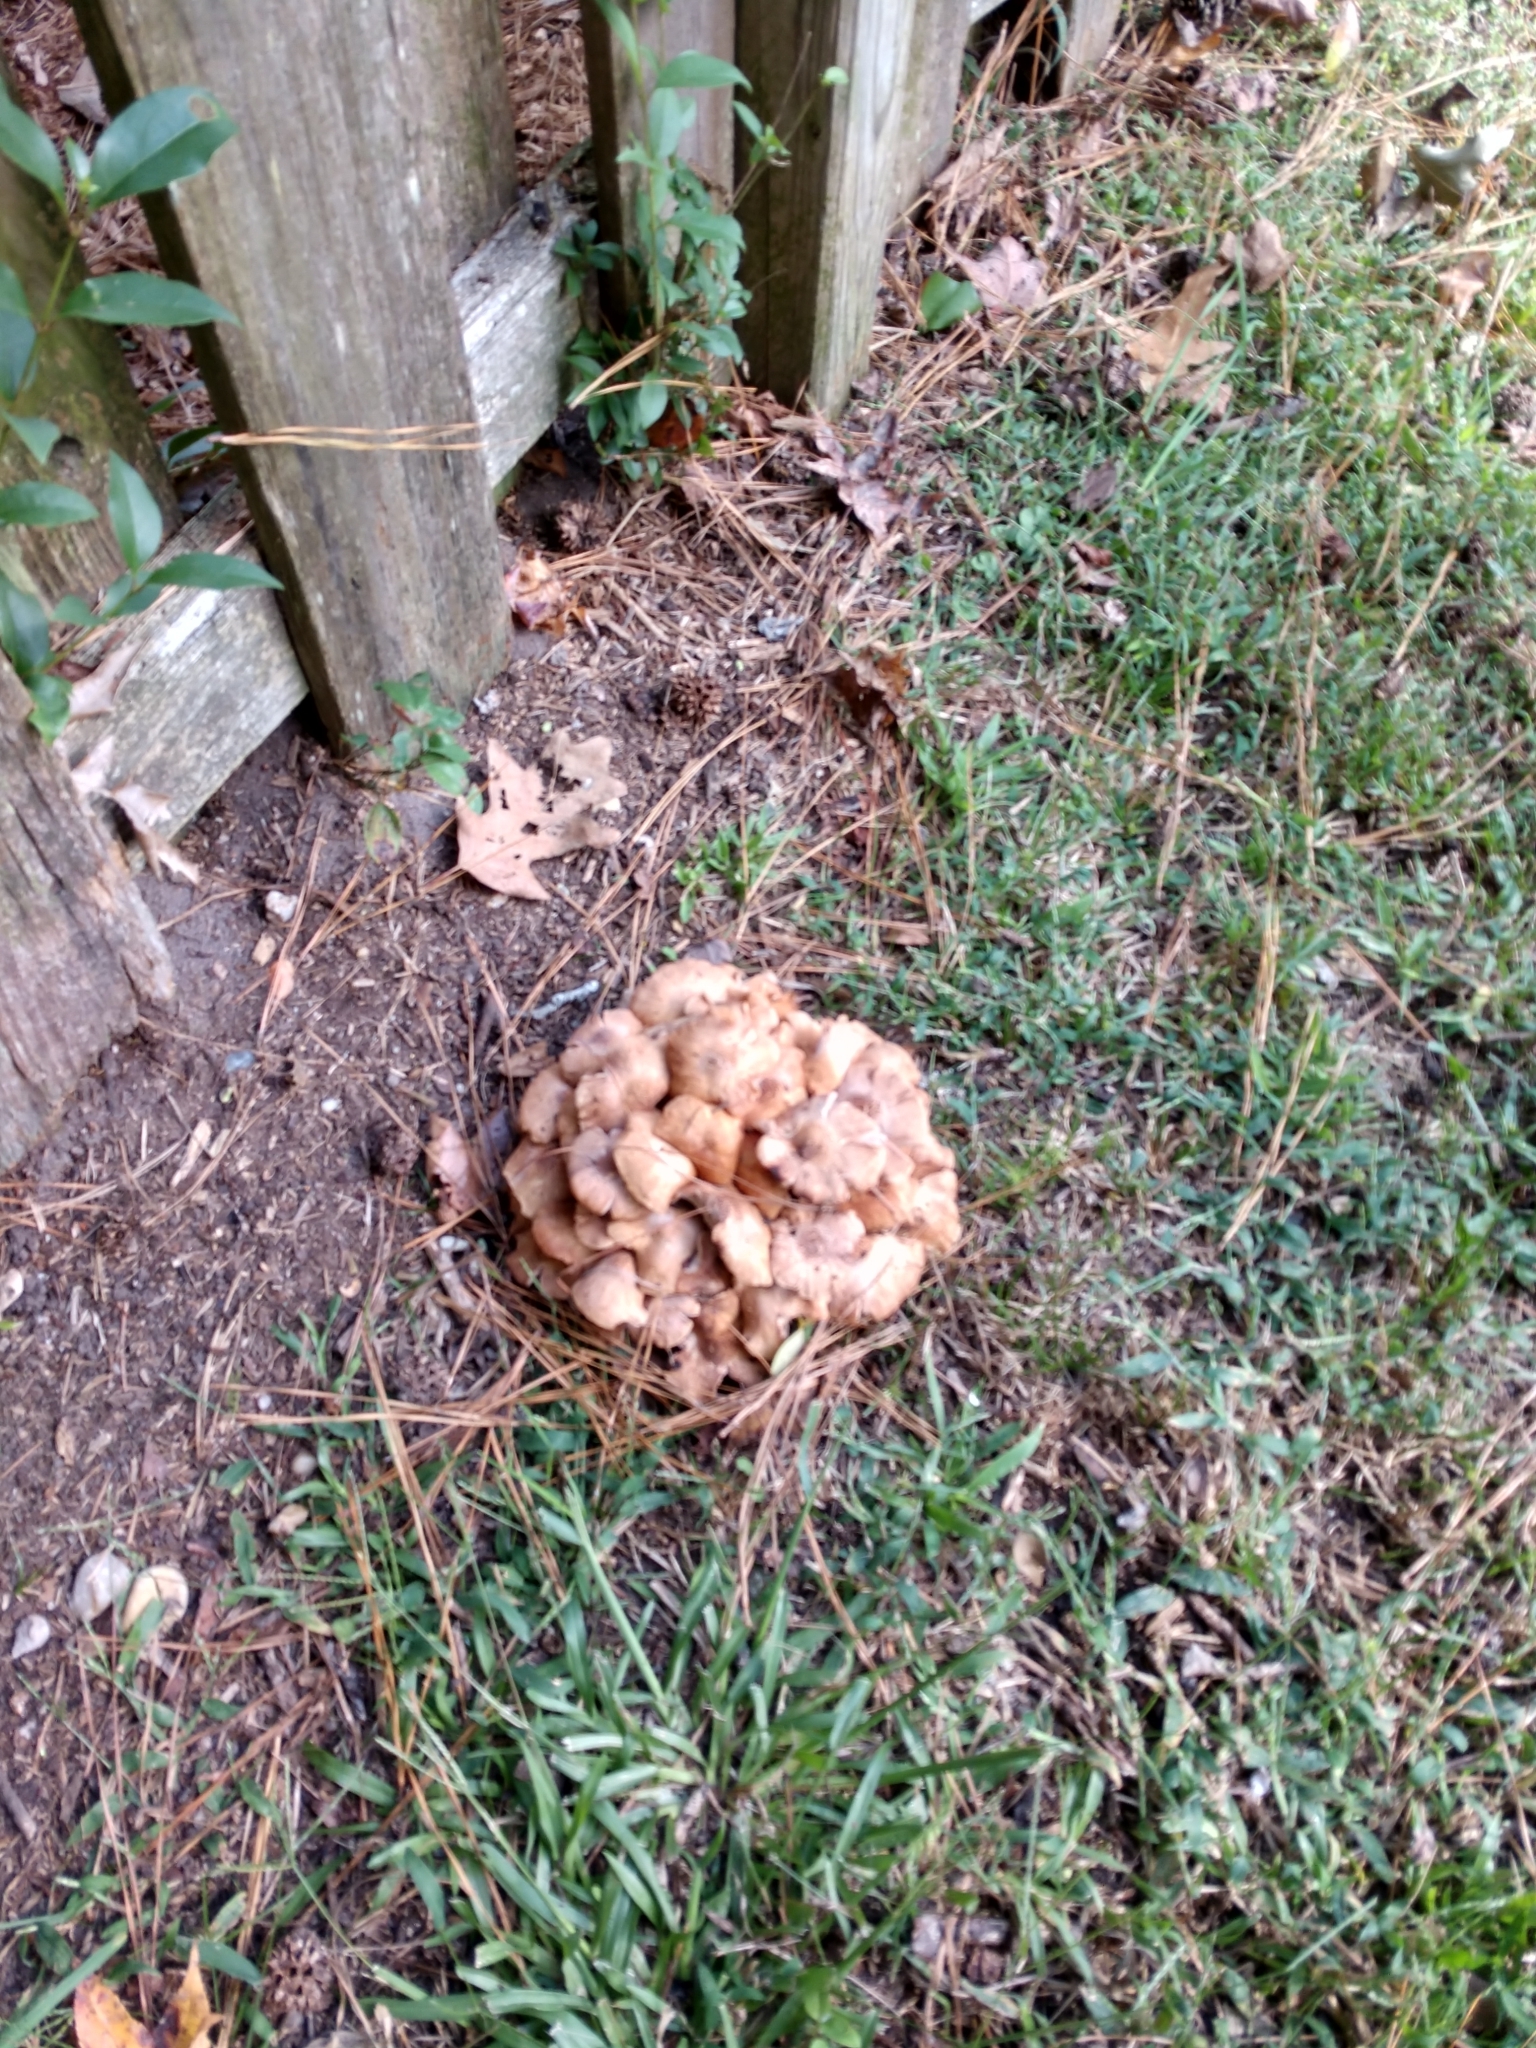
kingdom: Fungi
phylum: Basidiomycota
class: Agaricomycetes
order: Agaricales
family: Physalacriaceae
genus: Desarmillaria
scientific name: Desarmillaria caespitosa
